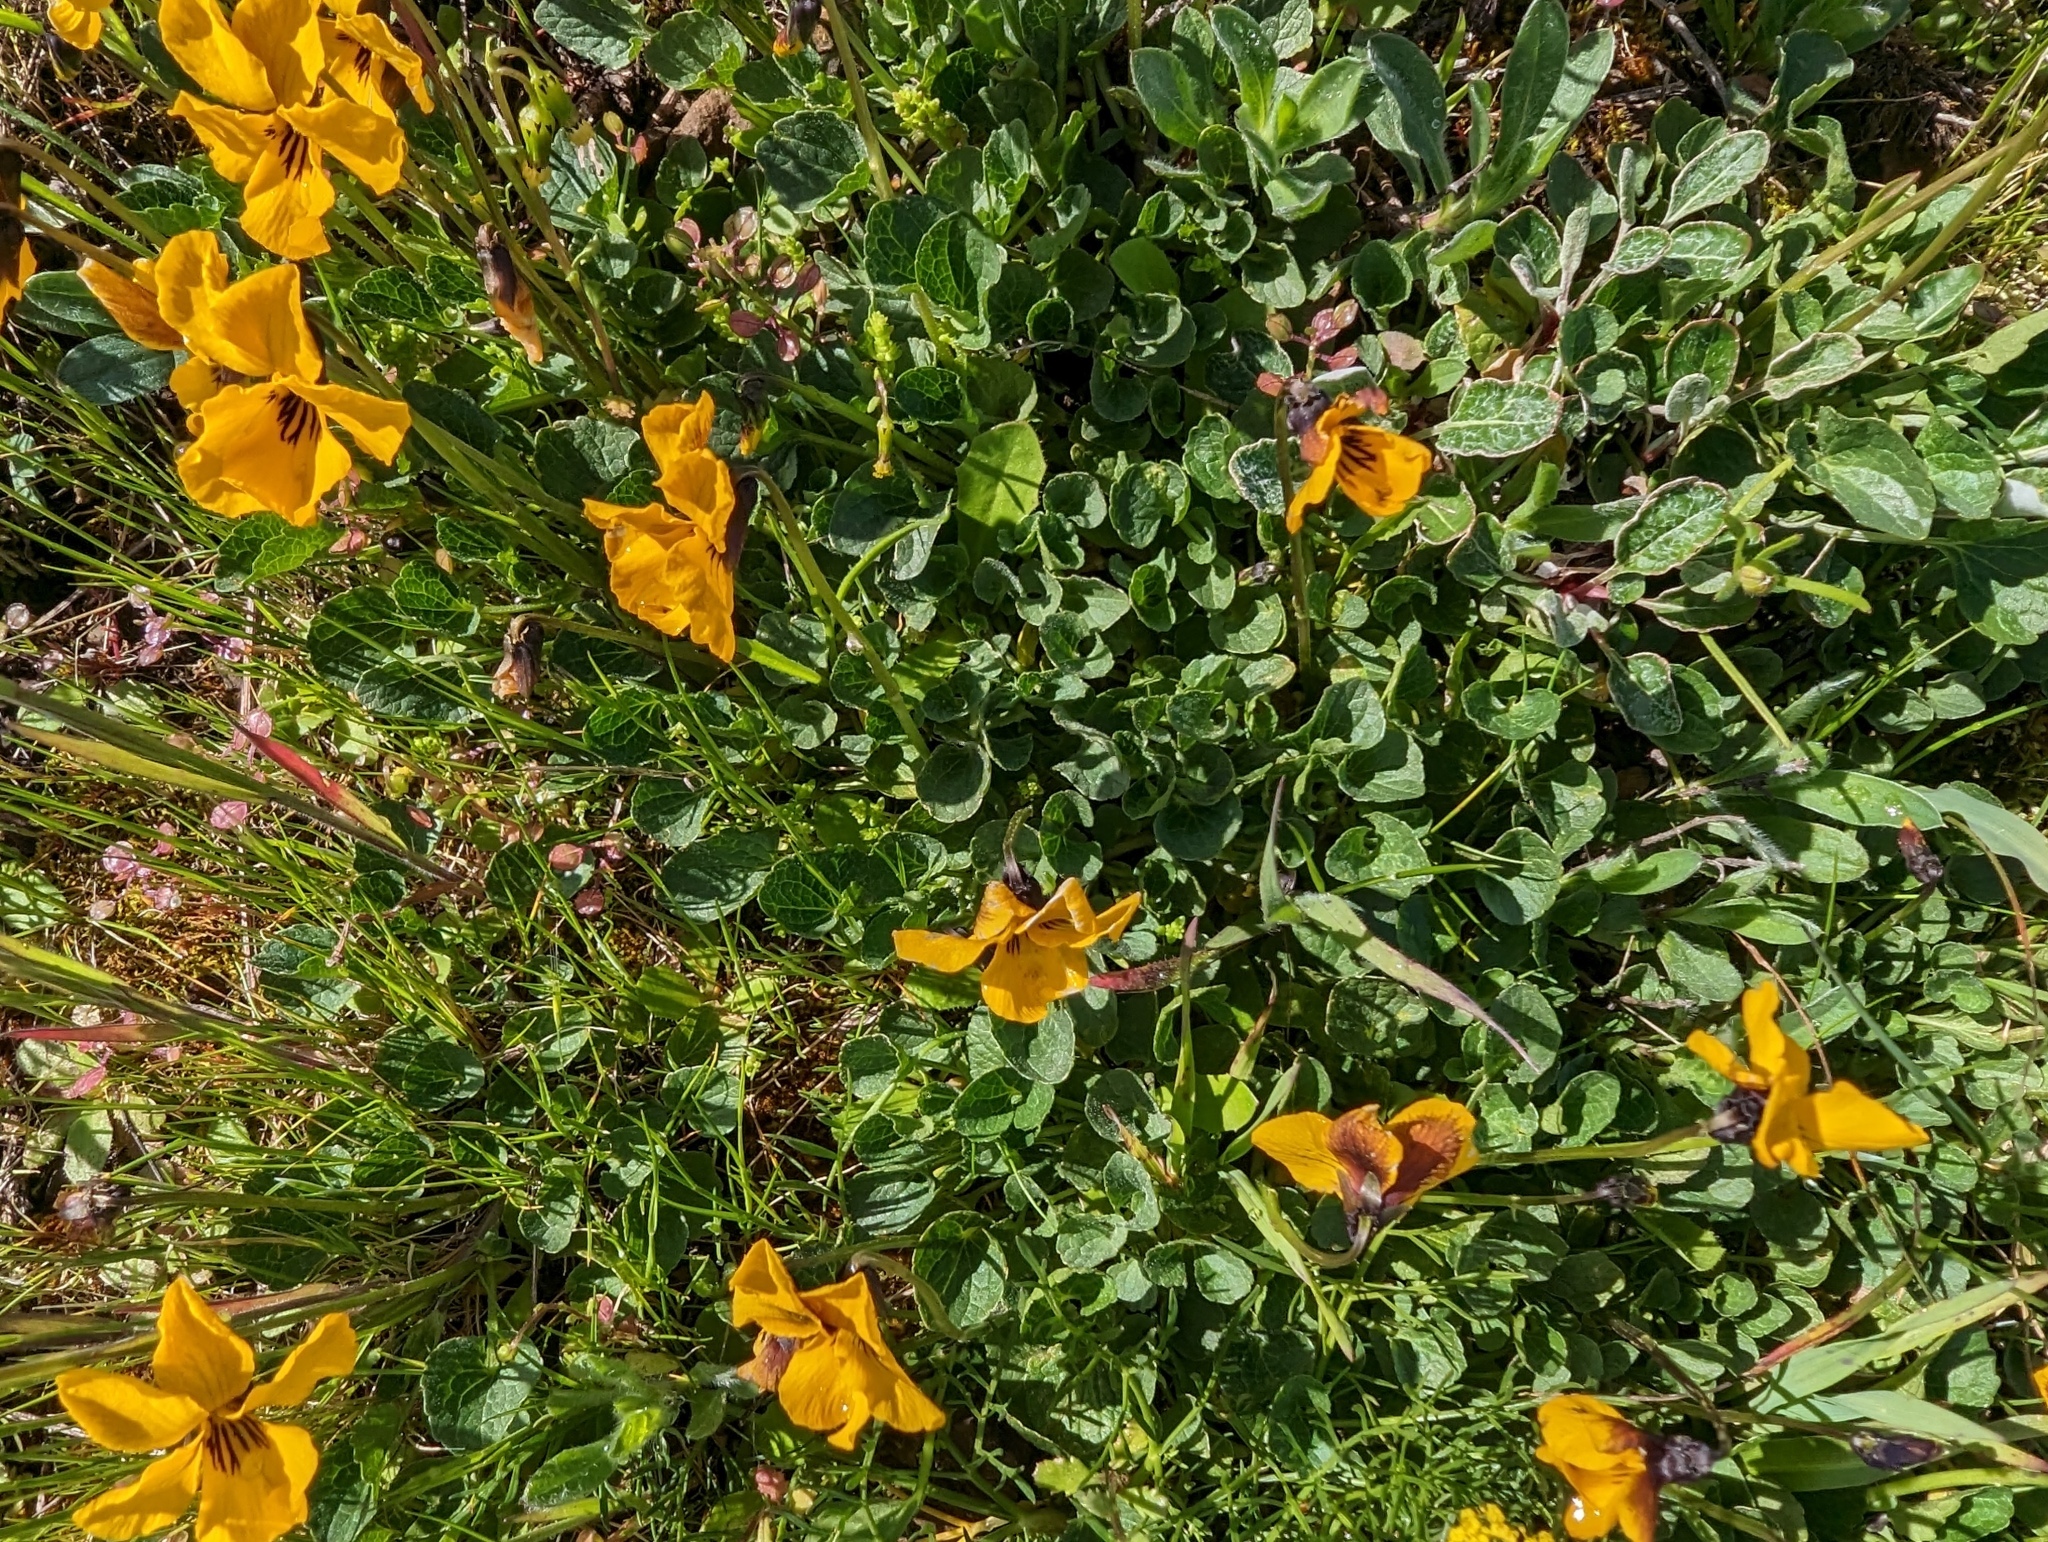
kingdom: Plantae
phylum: Tracheophyta
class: Magnoliopsida
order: Malpighiales
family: Violaceae
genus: Viola
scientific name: Viola pedunculata
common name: California golden violet
